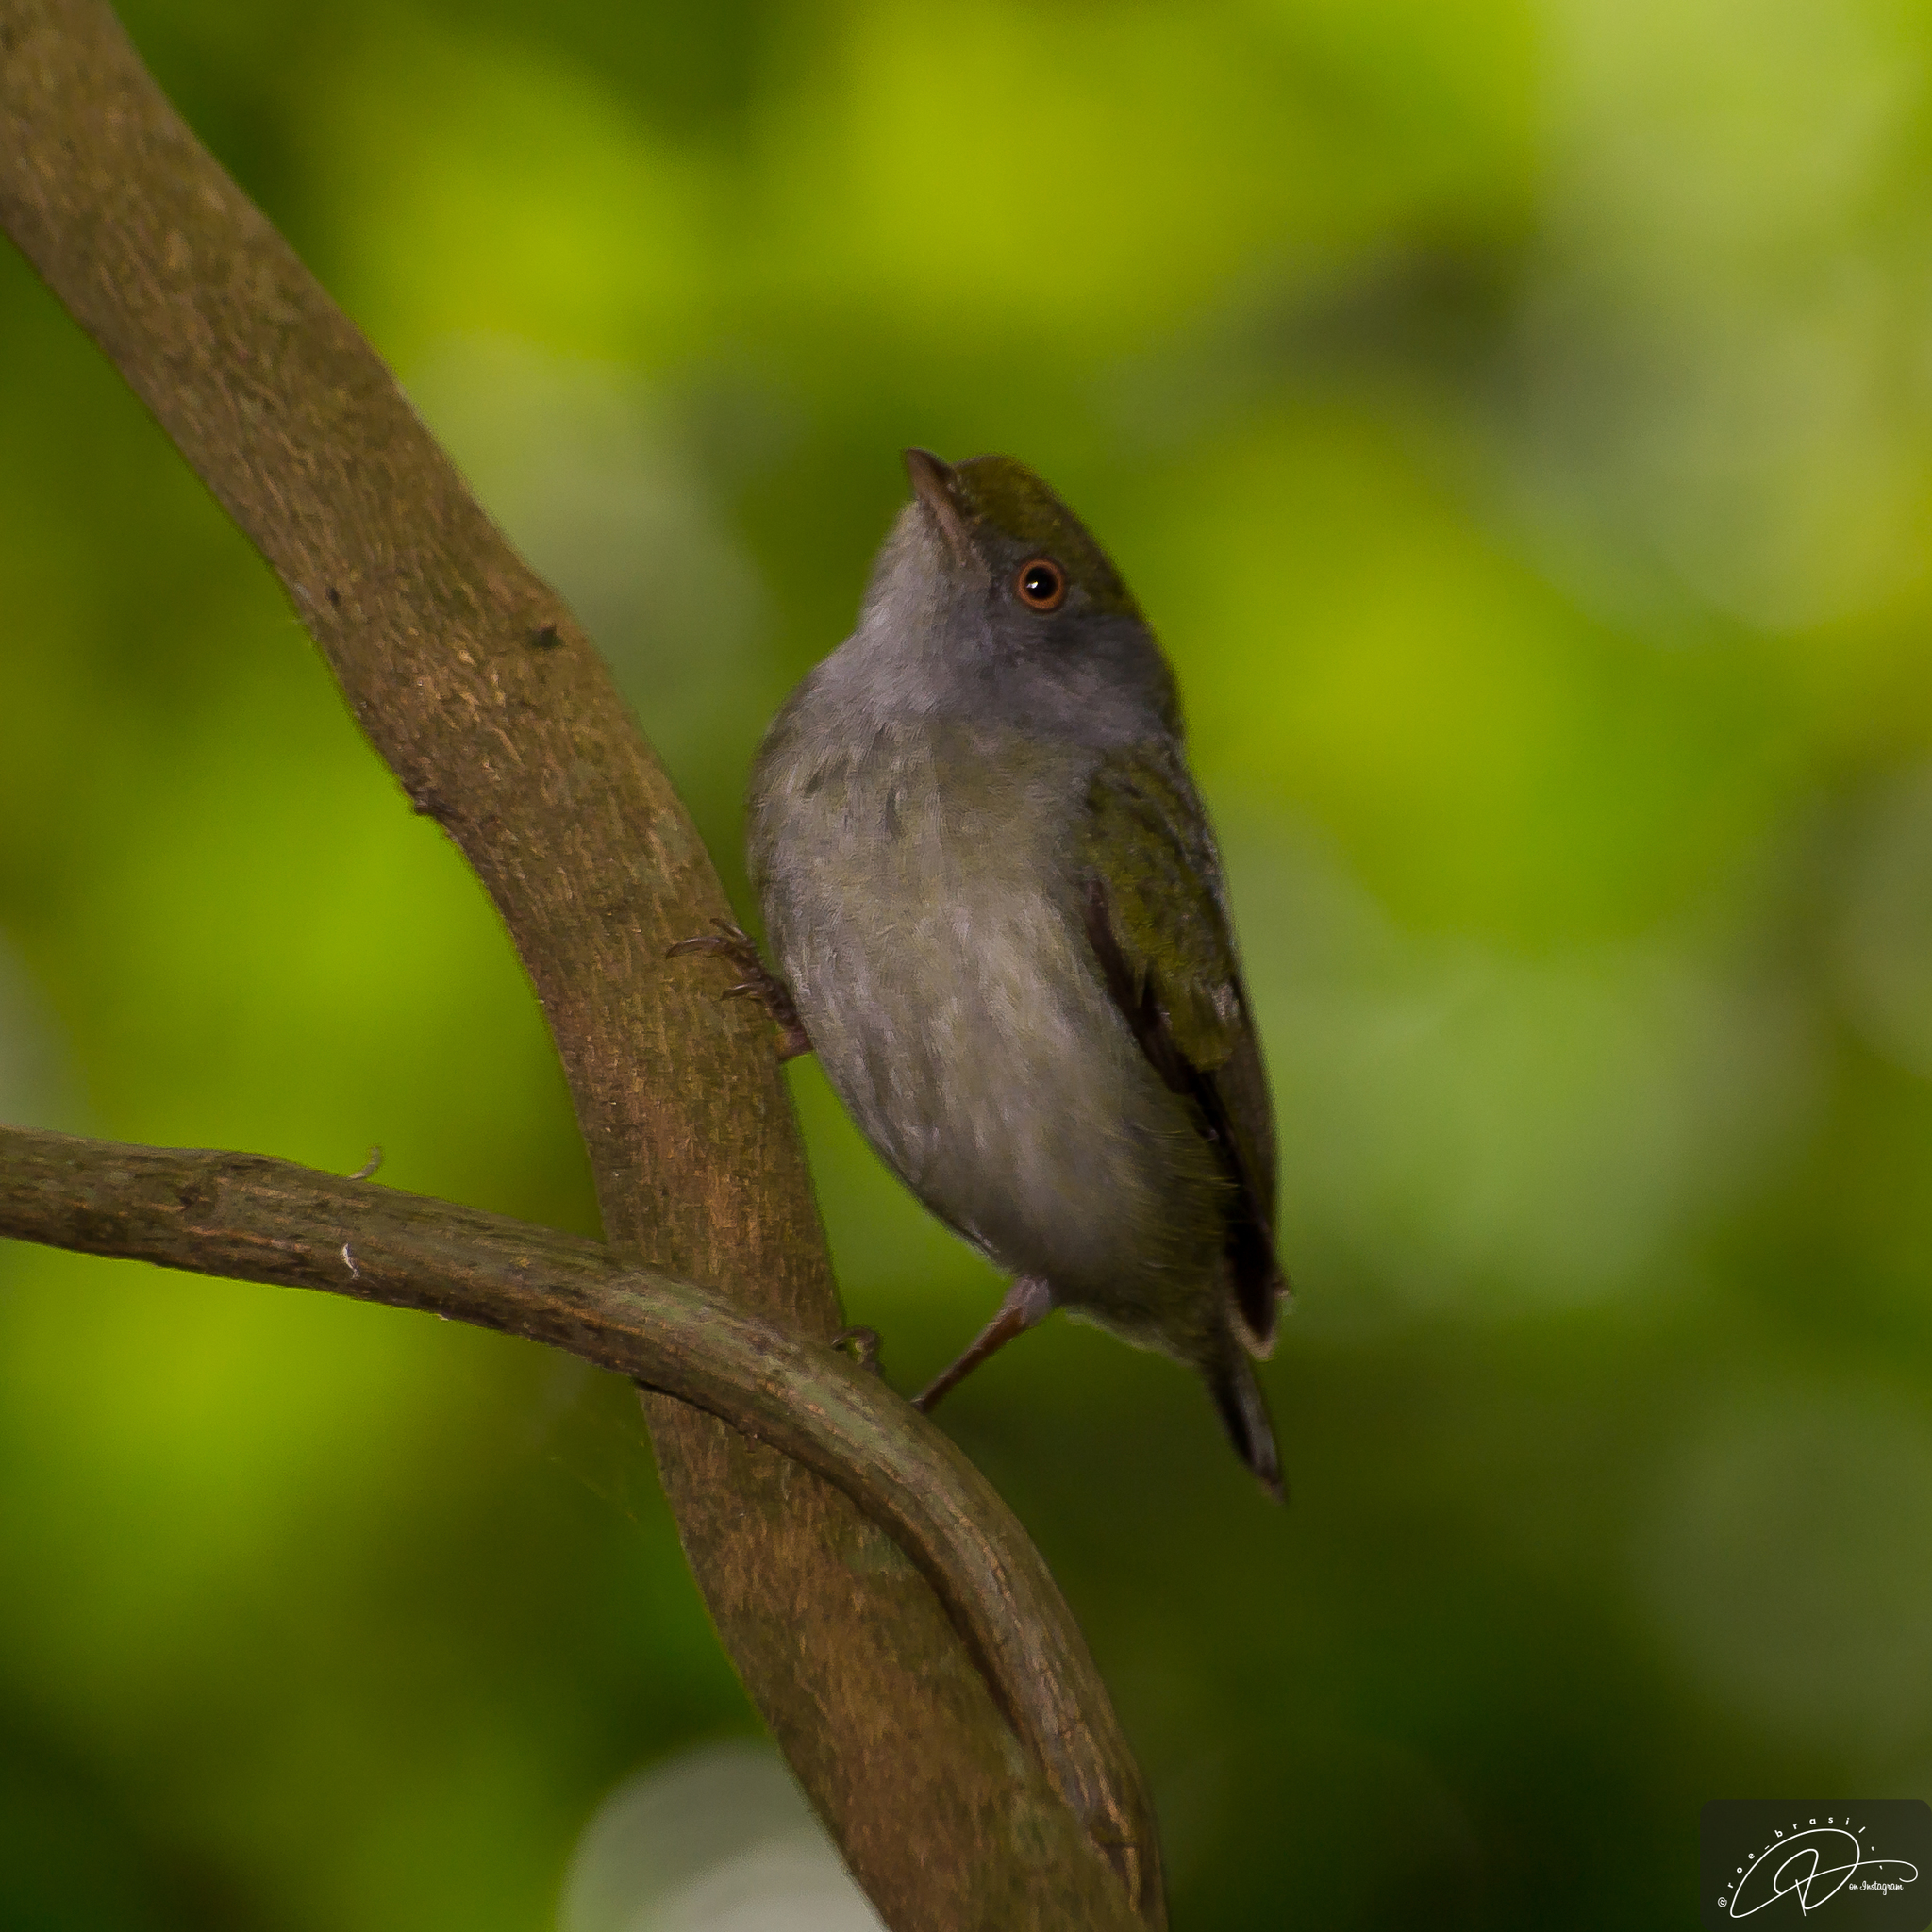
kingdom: Animalia
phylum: Chordata
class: Aves
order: Passeriformes
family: Pipridae
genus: Ilicura
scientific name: Ilicura militaris
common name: Pin-tailed manakin
